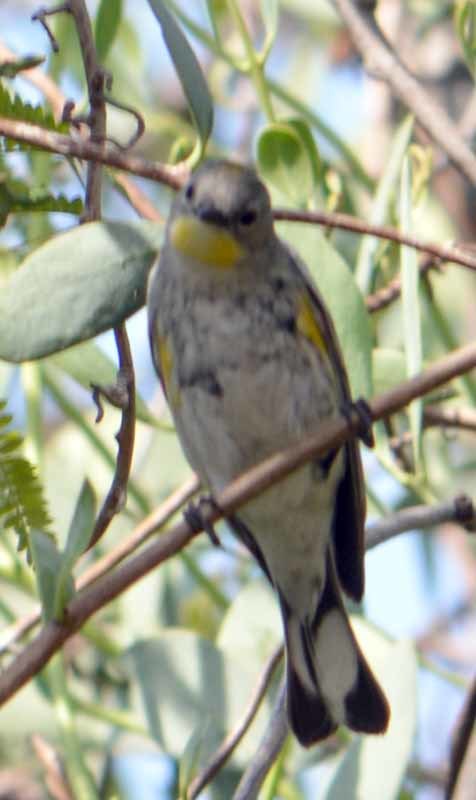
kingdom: Animalia
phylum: Chordata
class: Aves
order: Passeriformes
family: Parulidae
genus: Setophaga
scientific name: Setophaga coronata
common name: Myrtle warbler
